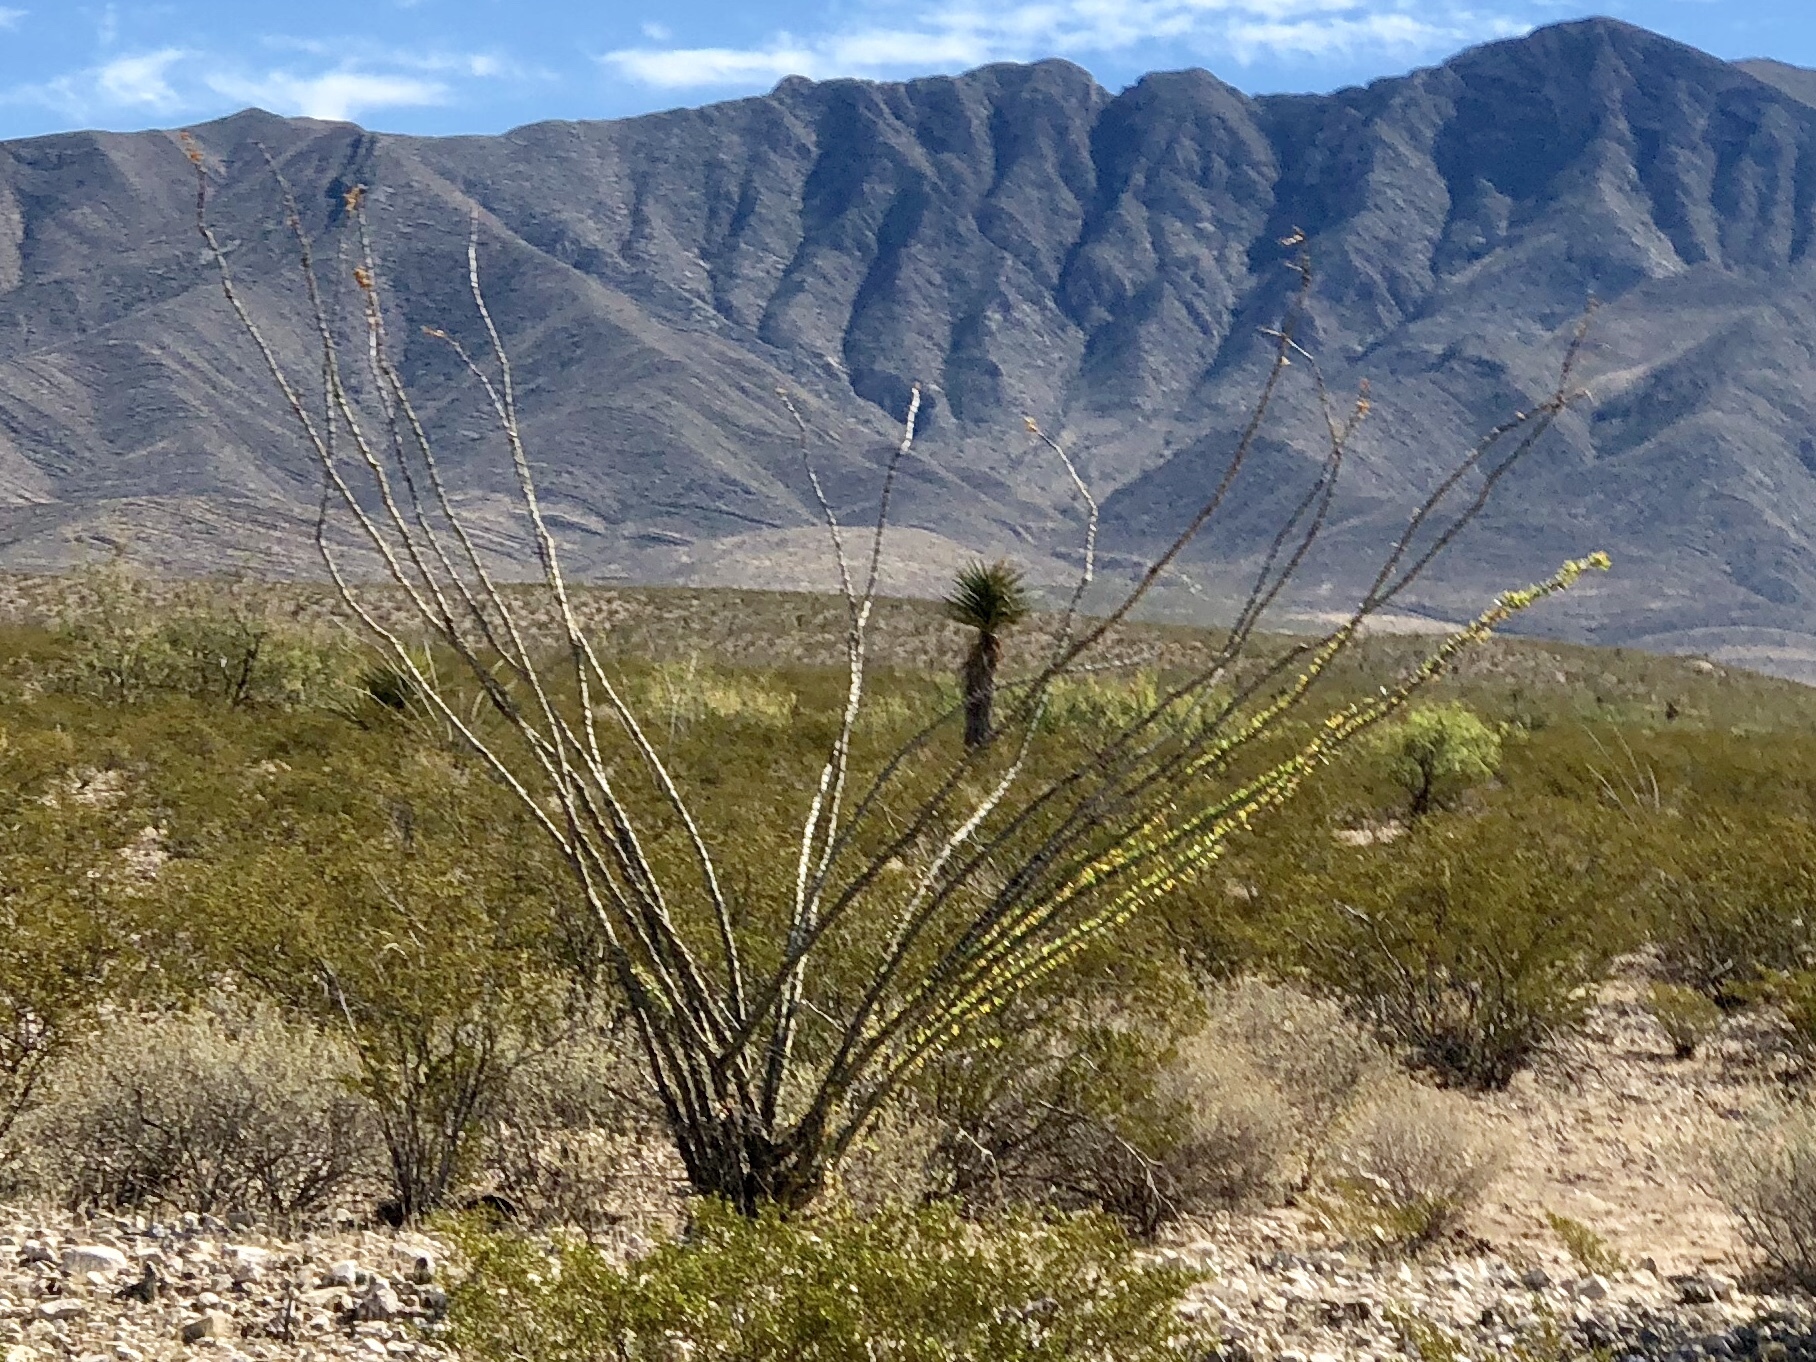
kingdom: Plantae
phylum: Tracheophyta
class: Magnoliopsida
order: Ericales
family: Fouquieriaceae
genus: Fouquieria
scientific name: Fouquieria splendens
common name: Vine-cactus
